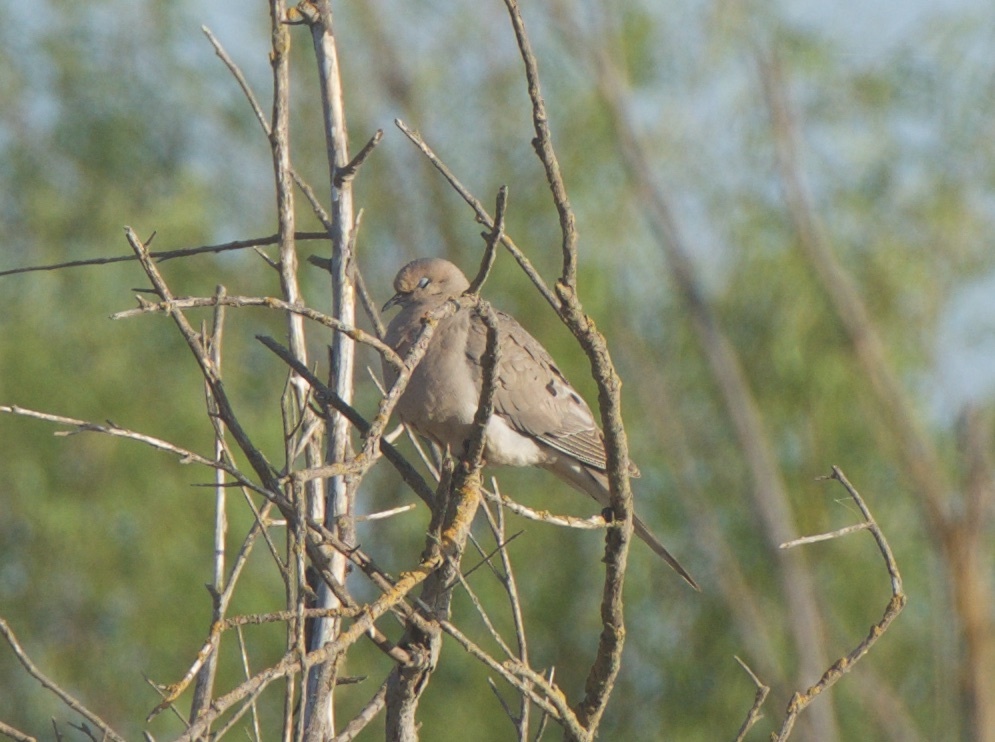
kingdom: Animalia
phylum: Chordata
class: Aves
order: Columbiformes
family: Columbidae
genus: Zenaida
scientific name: Zenaida macroura
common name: Mourning dove
